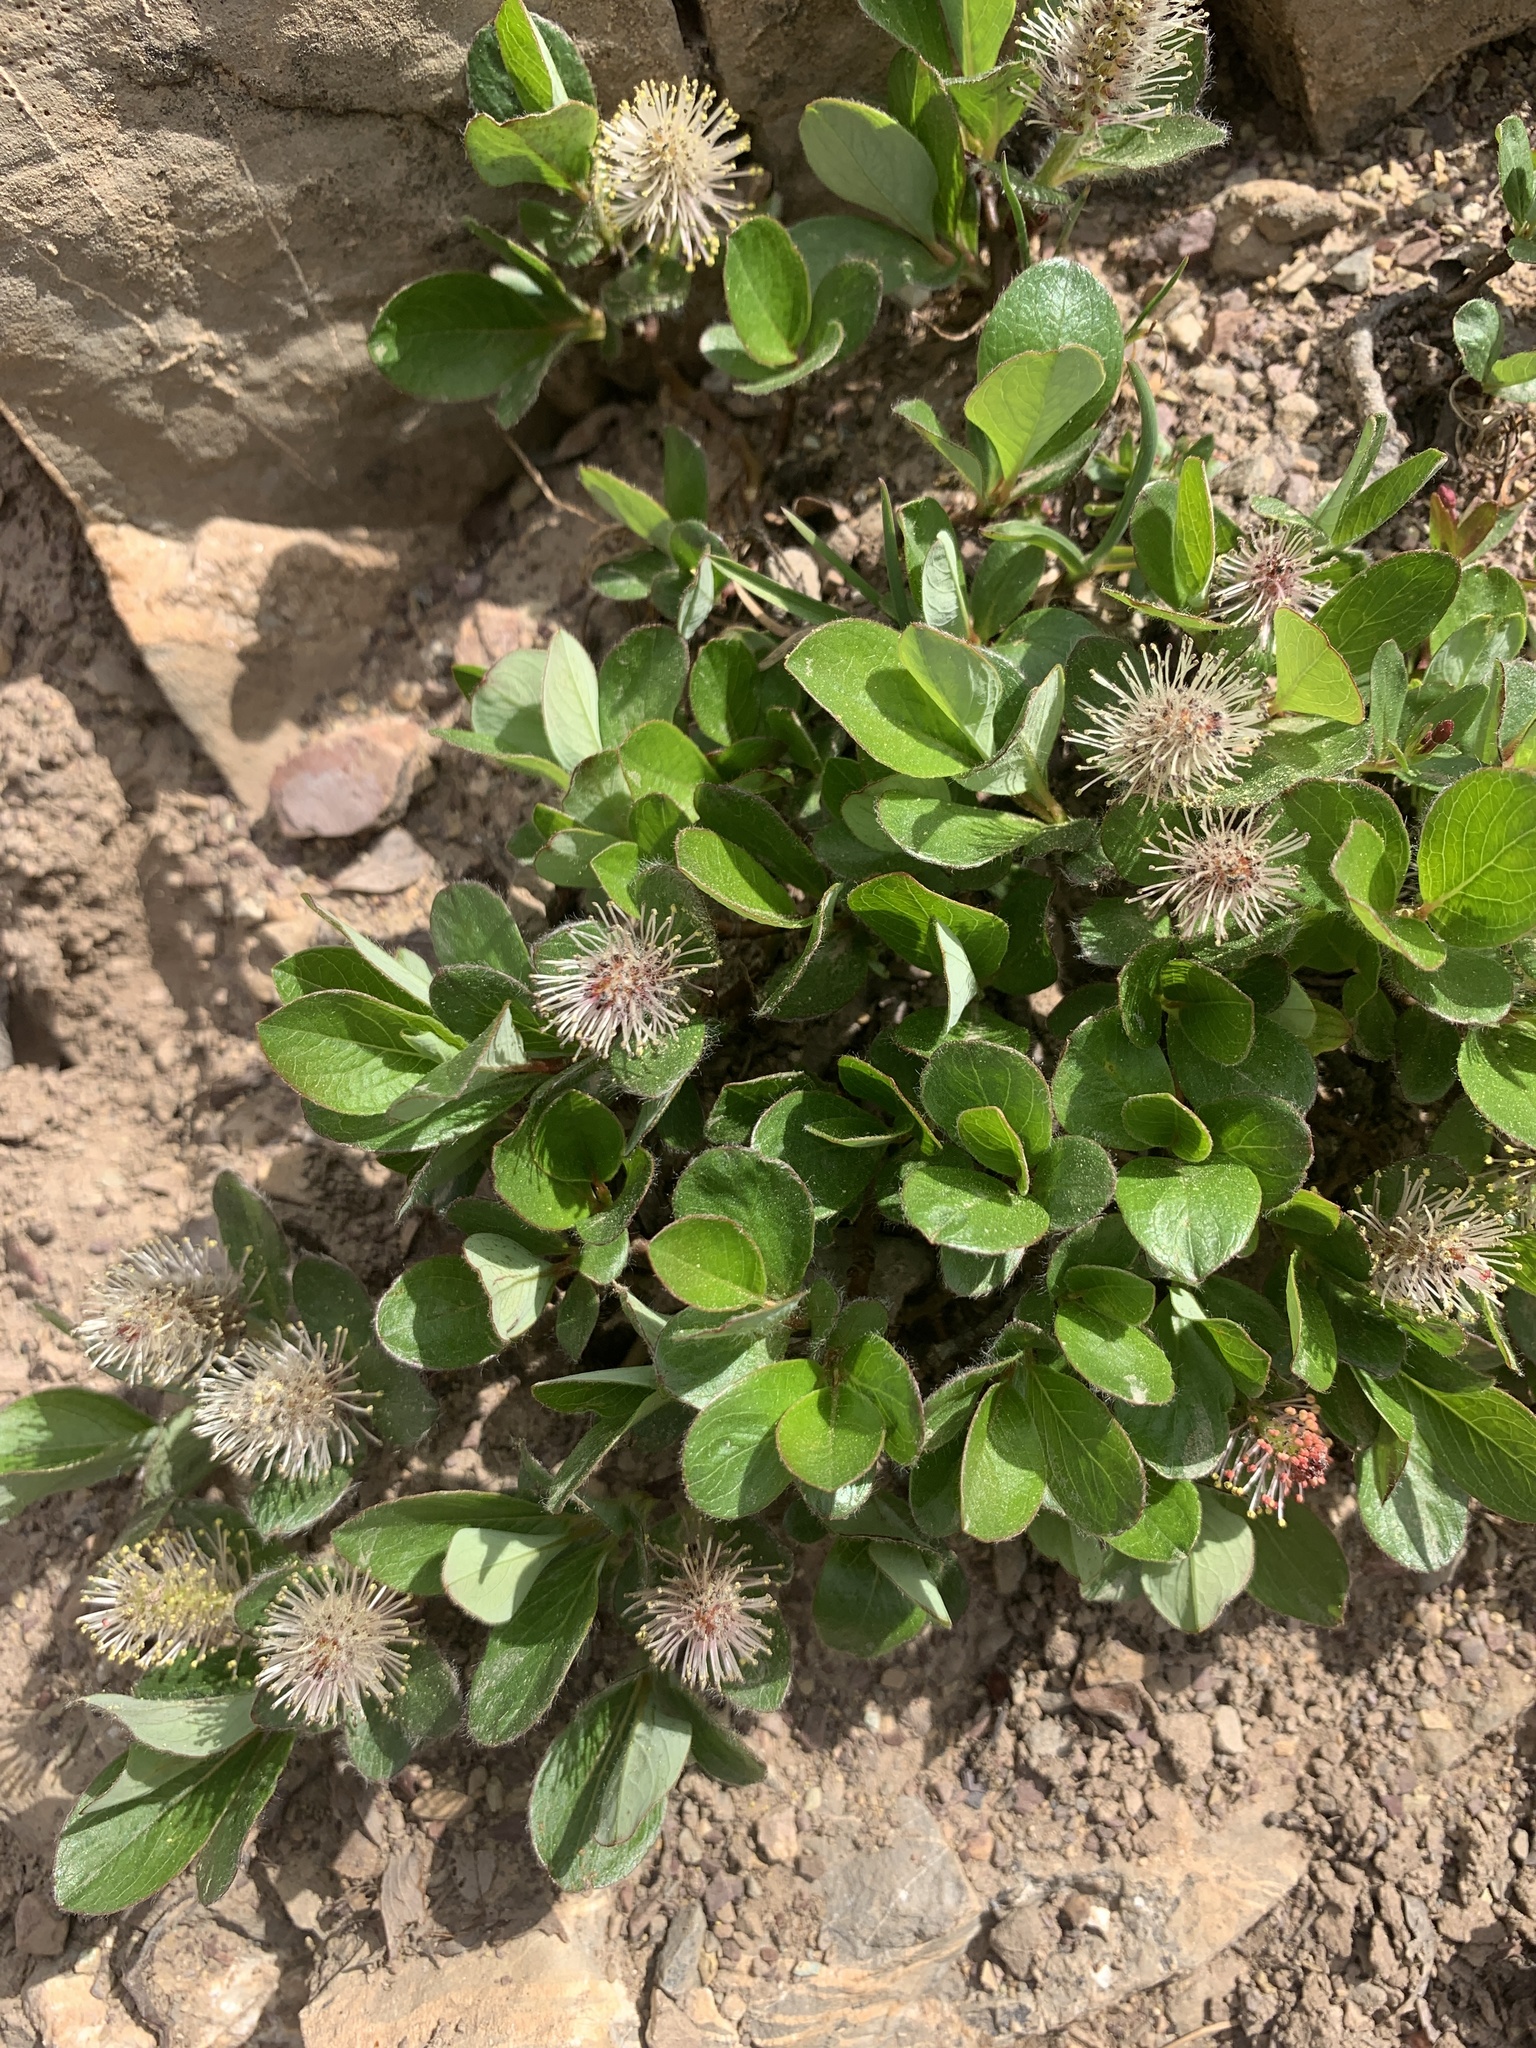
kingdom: Plantae
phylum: Tracheophyta
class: Magnoliopsida
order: Malpighiales
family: Salicaceae
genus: Salix
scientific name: Salix arctica
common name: Arctic willow
